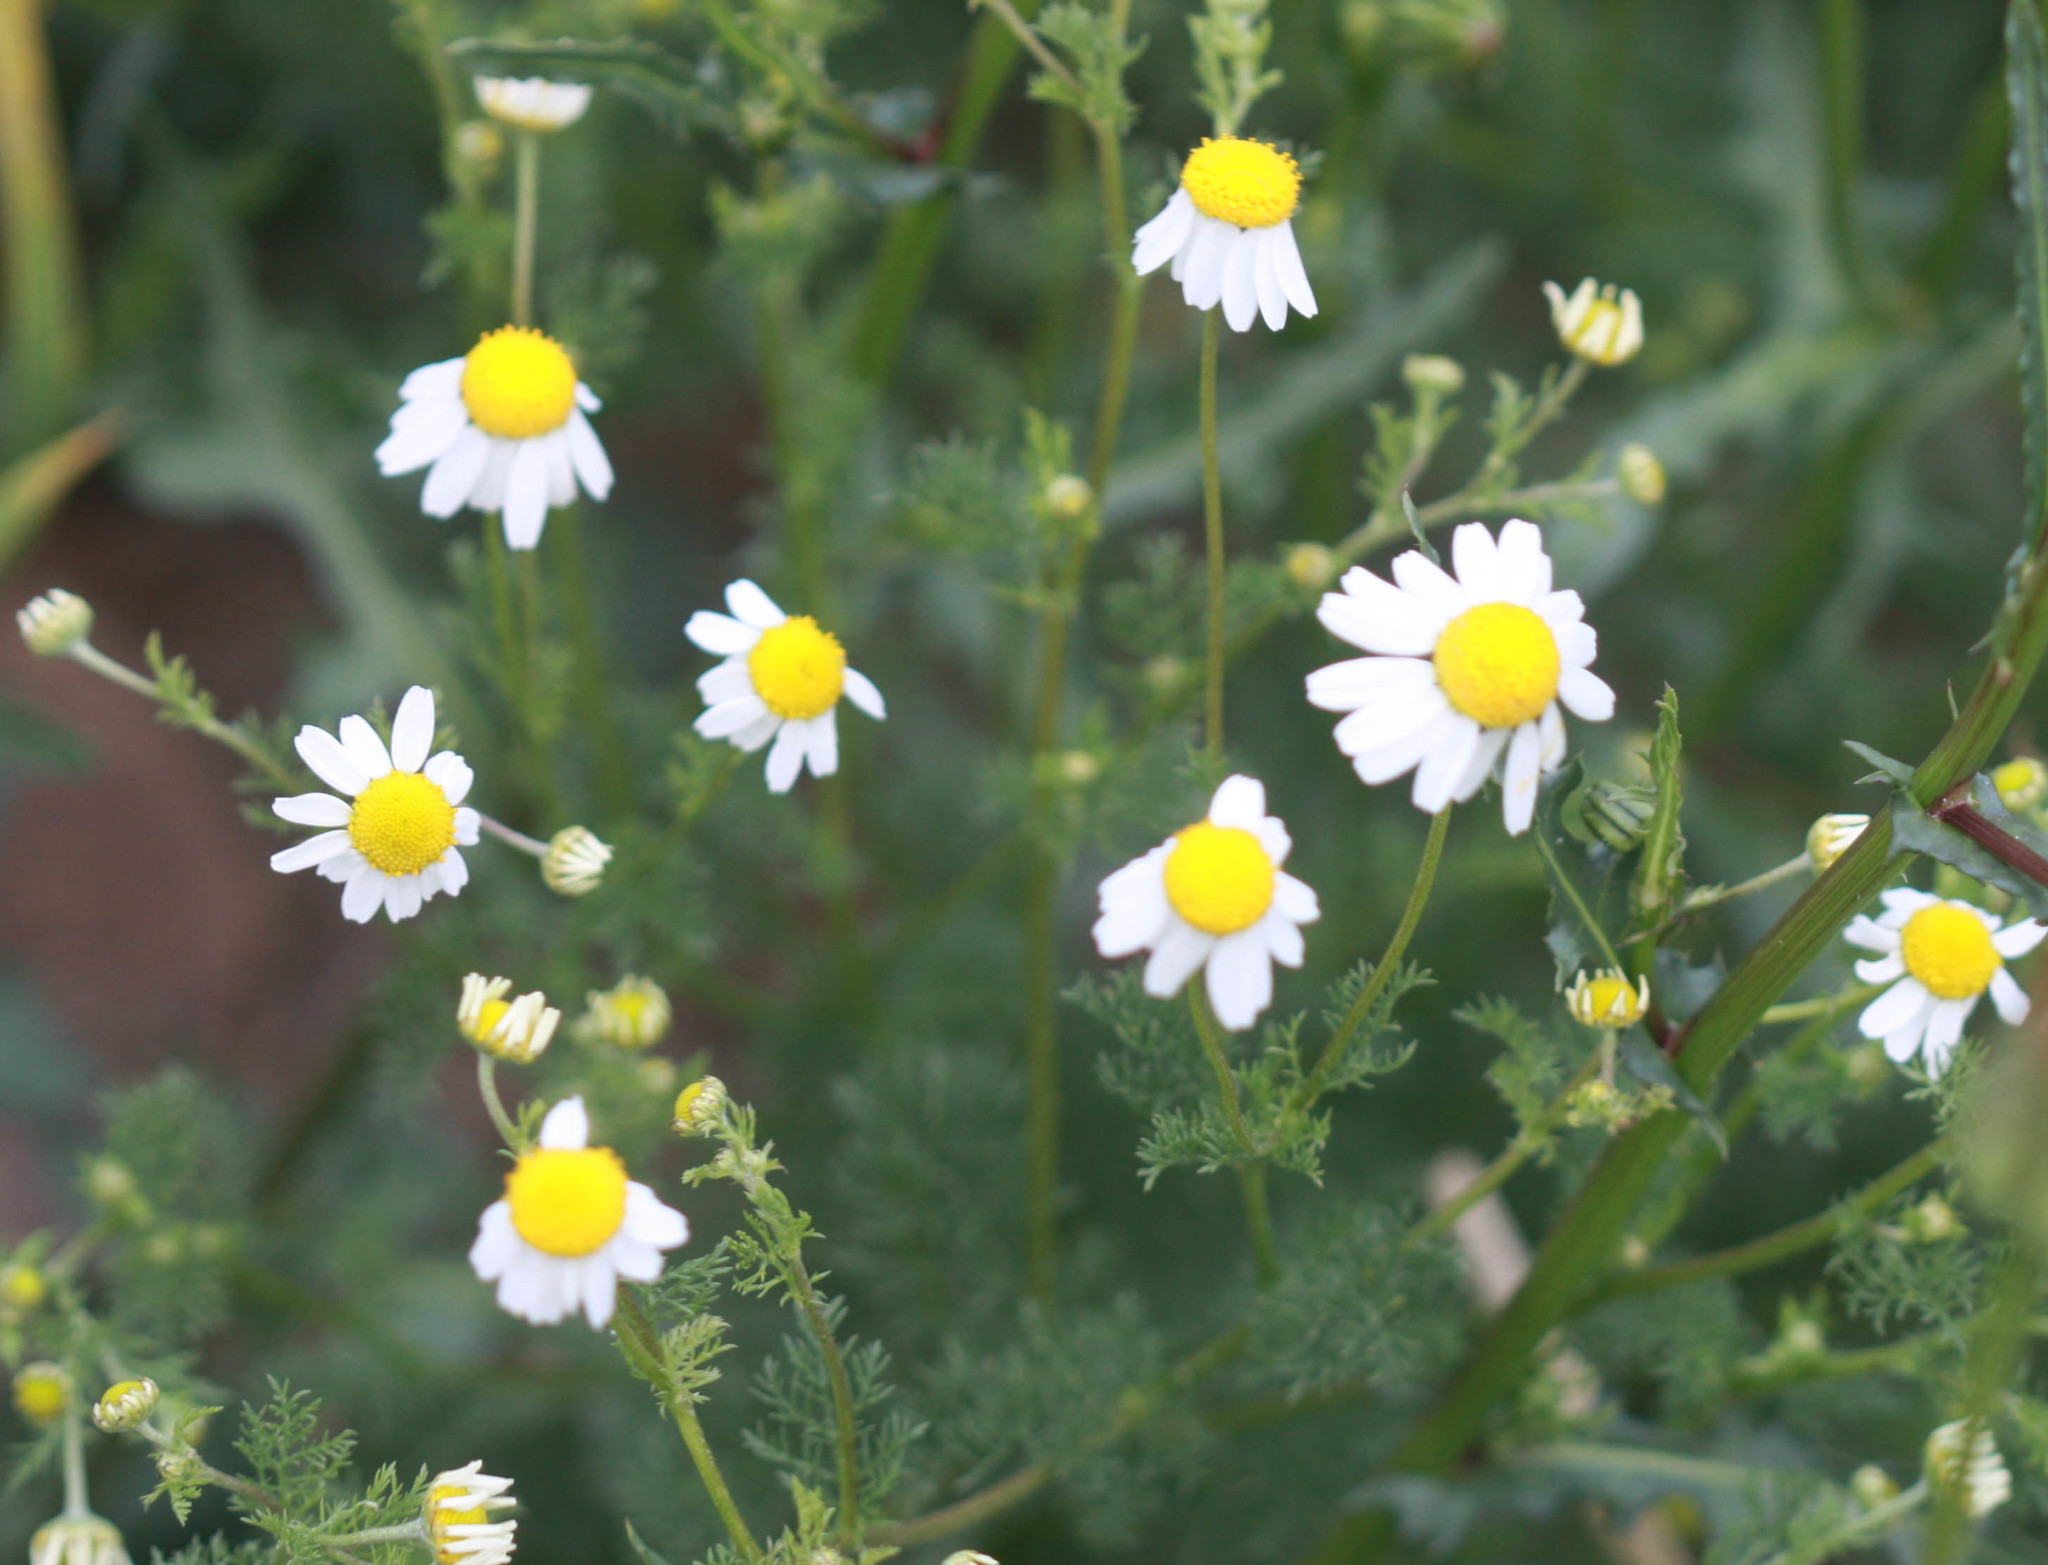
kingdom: Plantae
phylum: Tracheophyta
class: Magnoliopsida
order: Asterales
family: Asteraceae
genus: Anthemis
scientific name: Anthemis cotula
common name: Stinking chamomile
